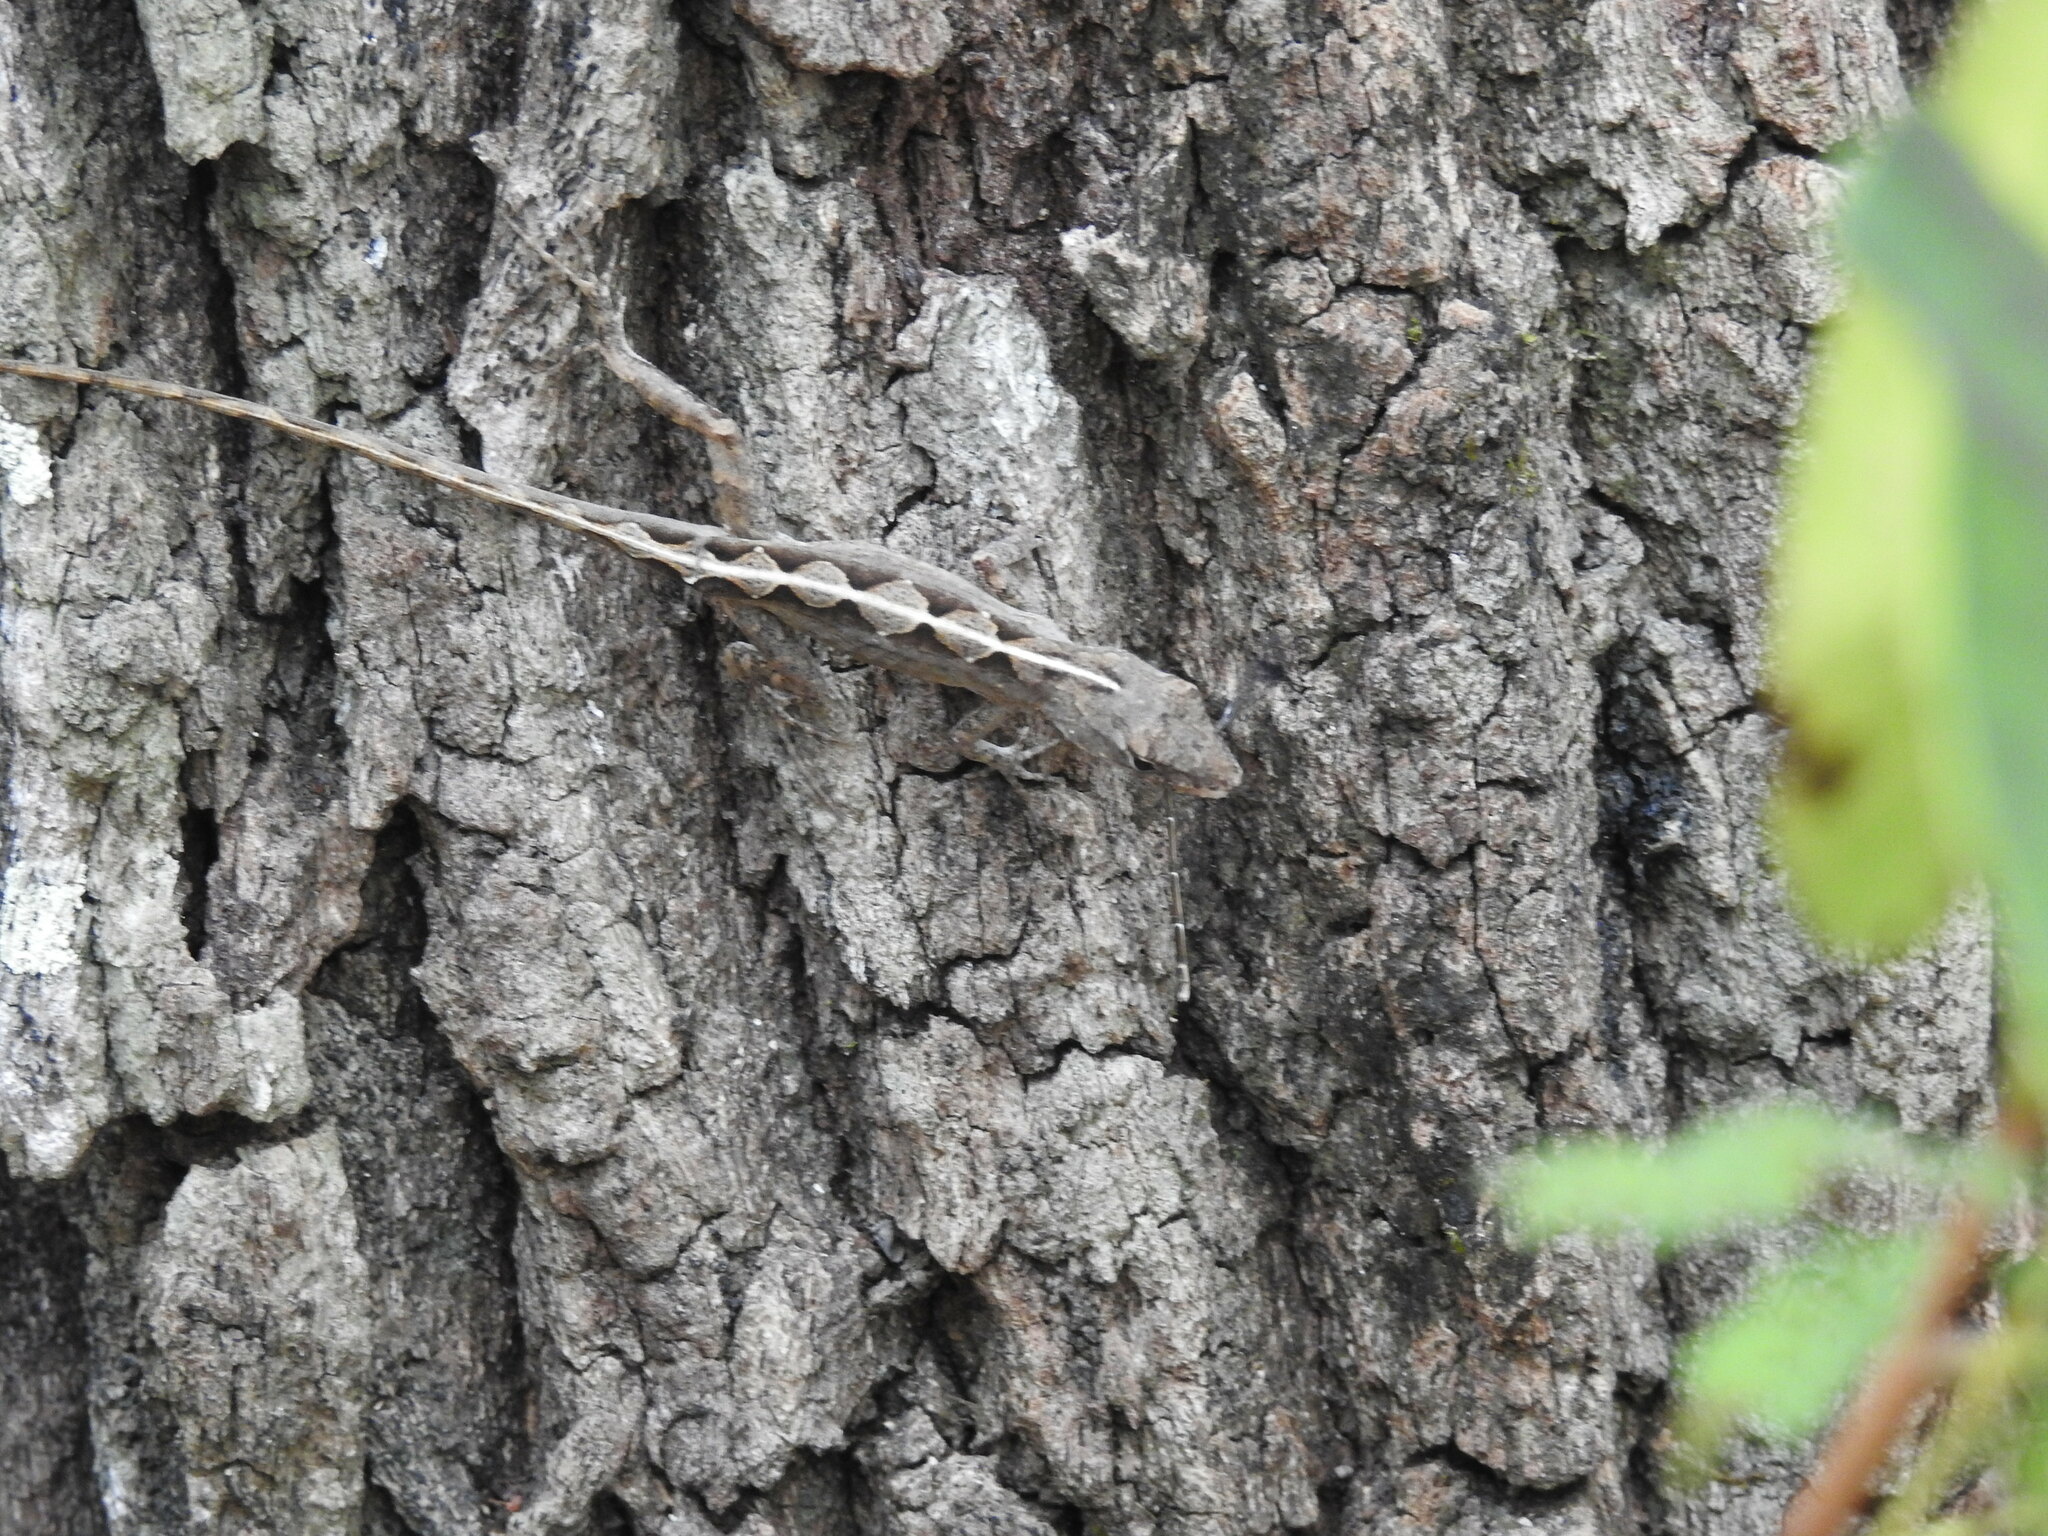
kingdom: Animalia
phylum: Chordata
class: Squamata
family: Dactyloidae
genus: Anolis
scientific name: Anolis sagrei
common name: Brown anole
